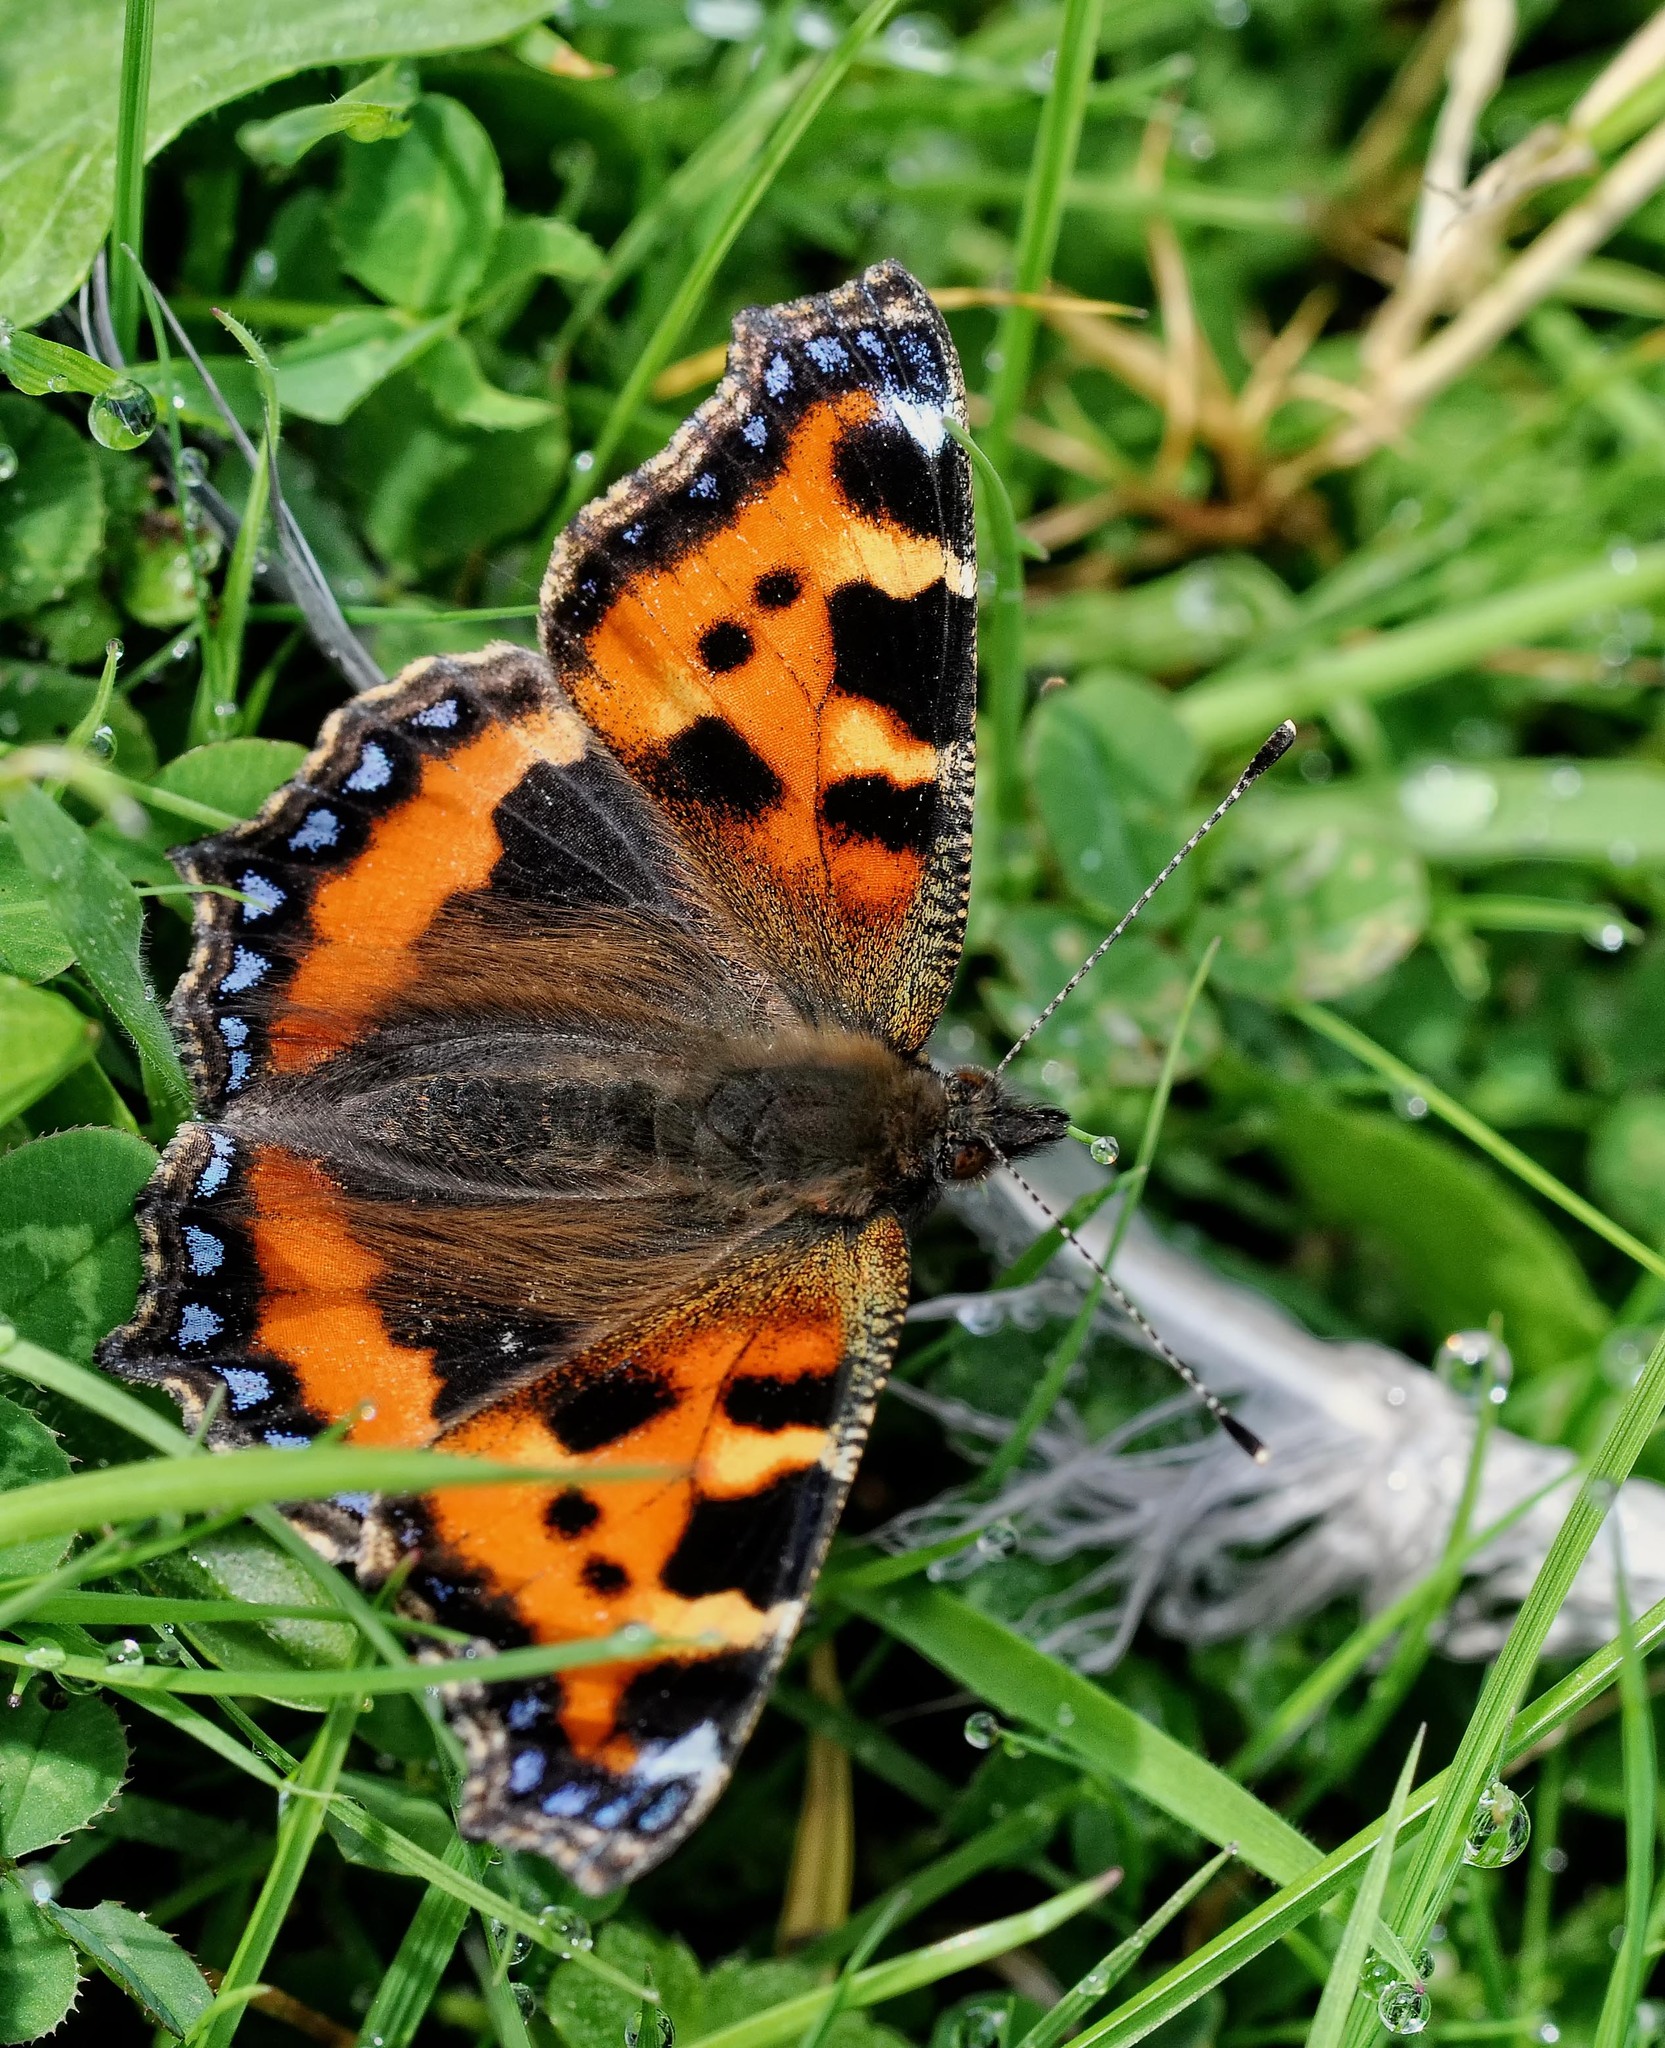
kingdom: Animalia
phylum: Arthropoda
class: Insecta
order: Lepidoptera
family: Nymphalidae
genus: Aglais
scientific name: Aglais urticae
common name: Small tortoiseshell
